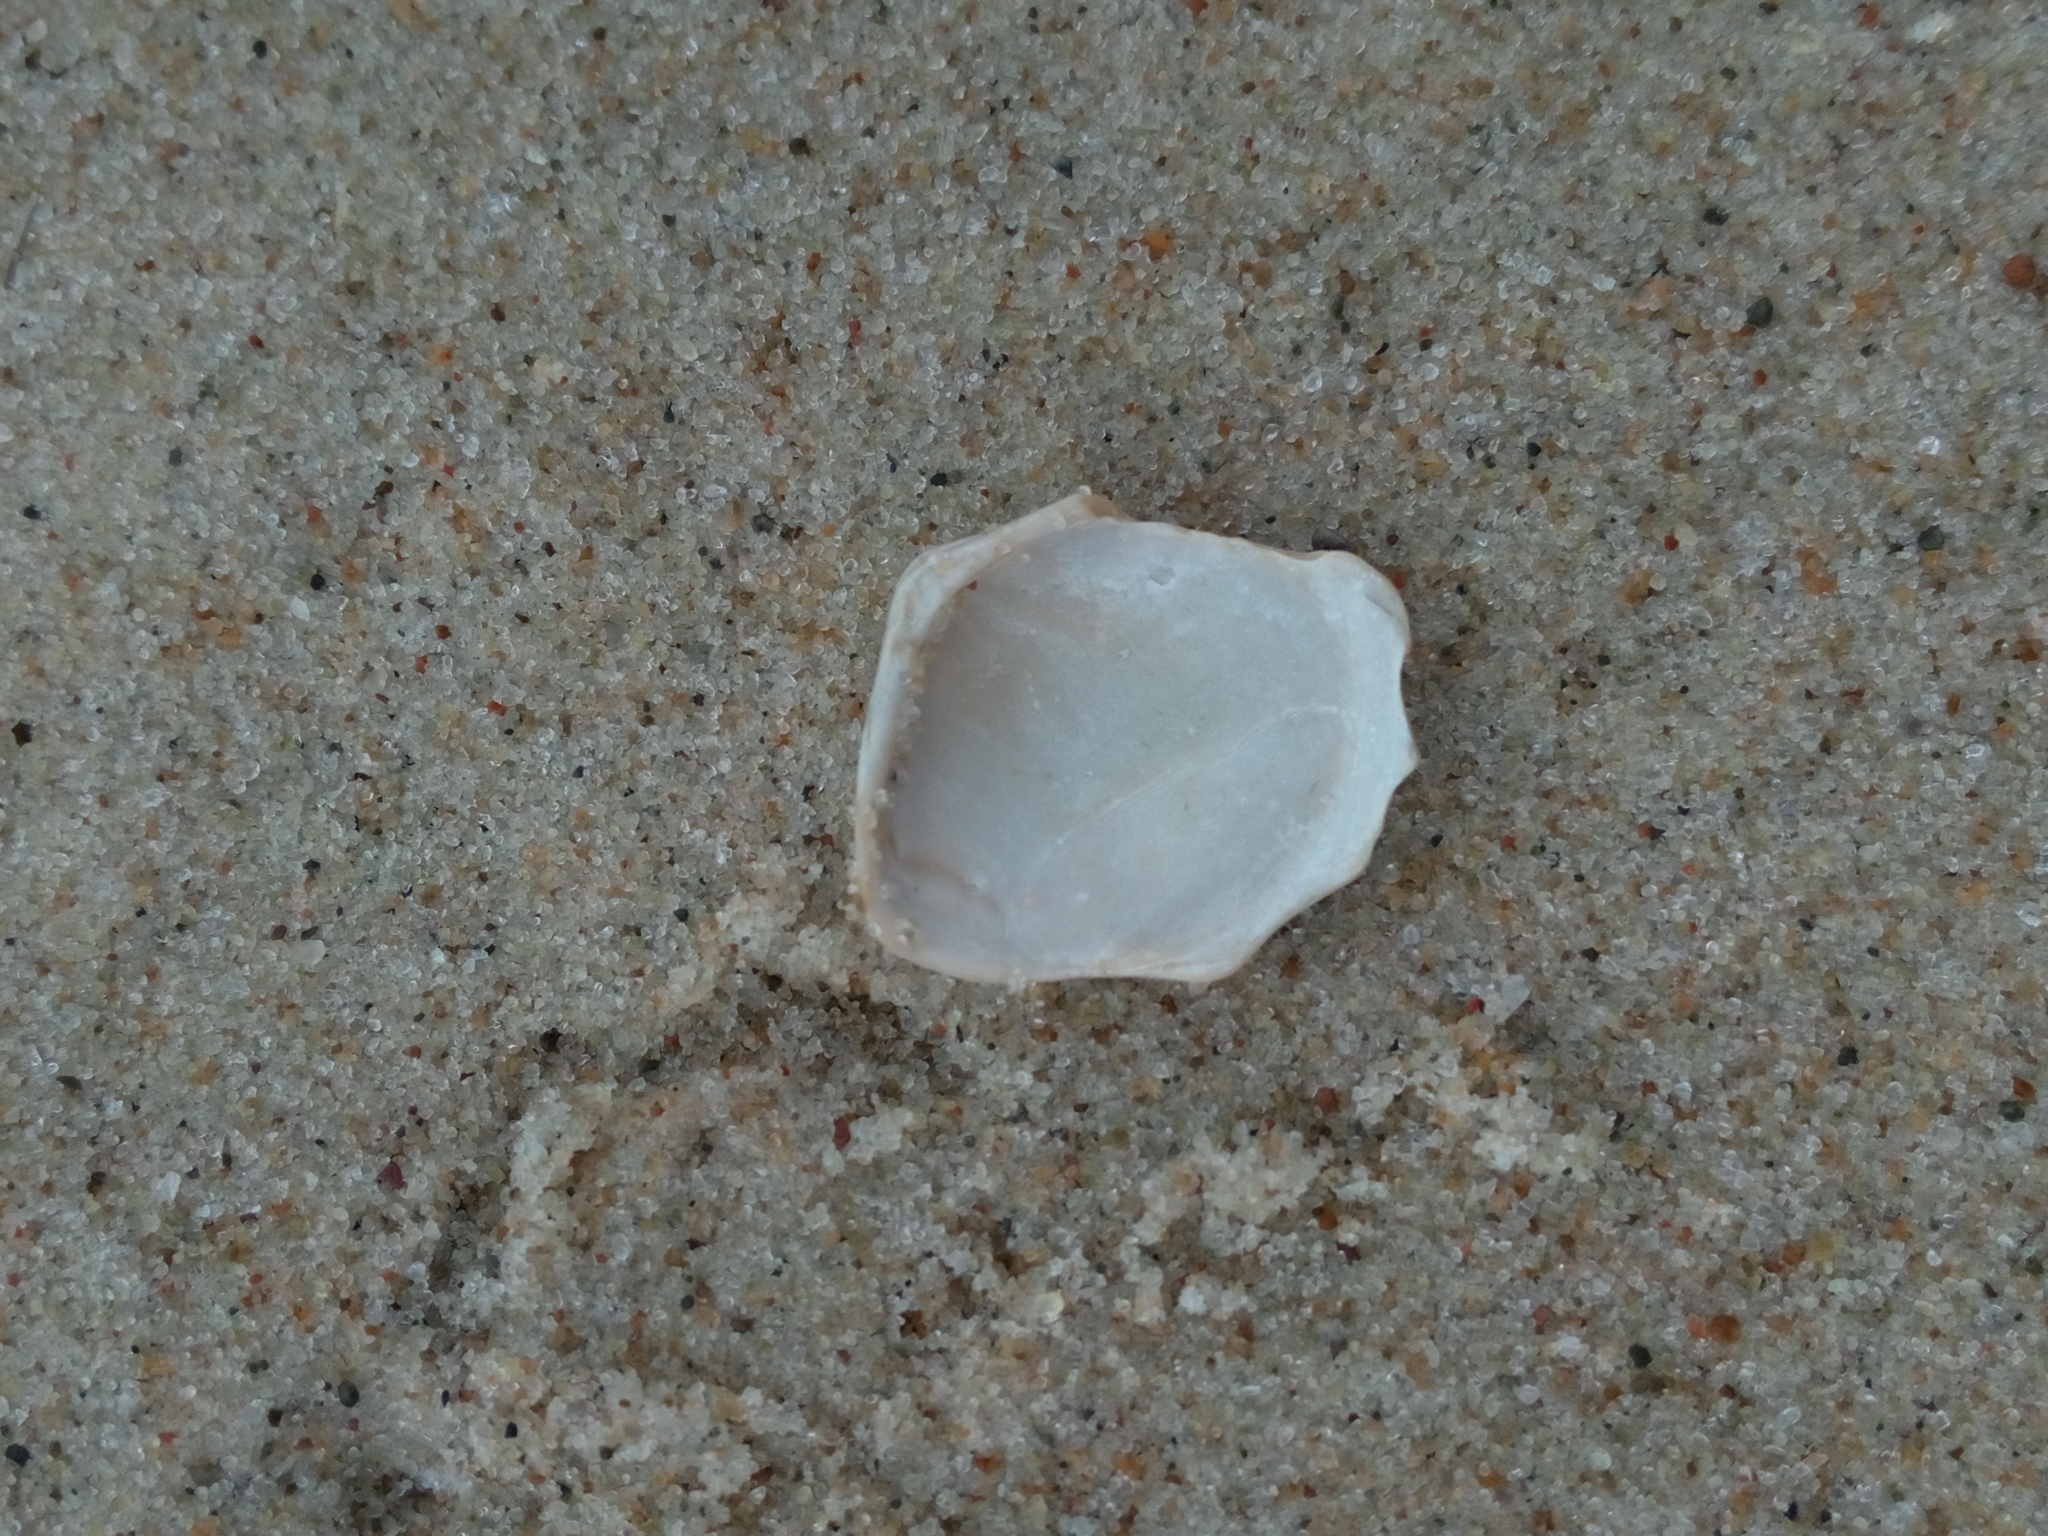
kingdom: Animalia
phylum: Mollusca
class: Bivalvia
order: Cardiida
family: Tellinidae
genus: Macoma
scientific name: Macoma balthica
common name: Baltic tellin
